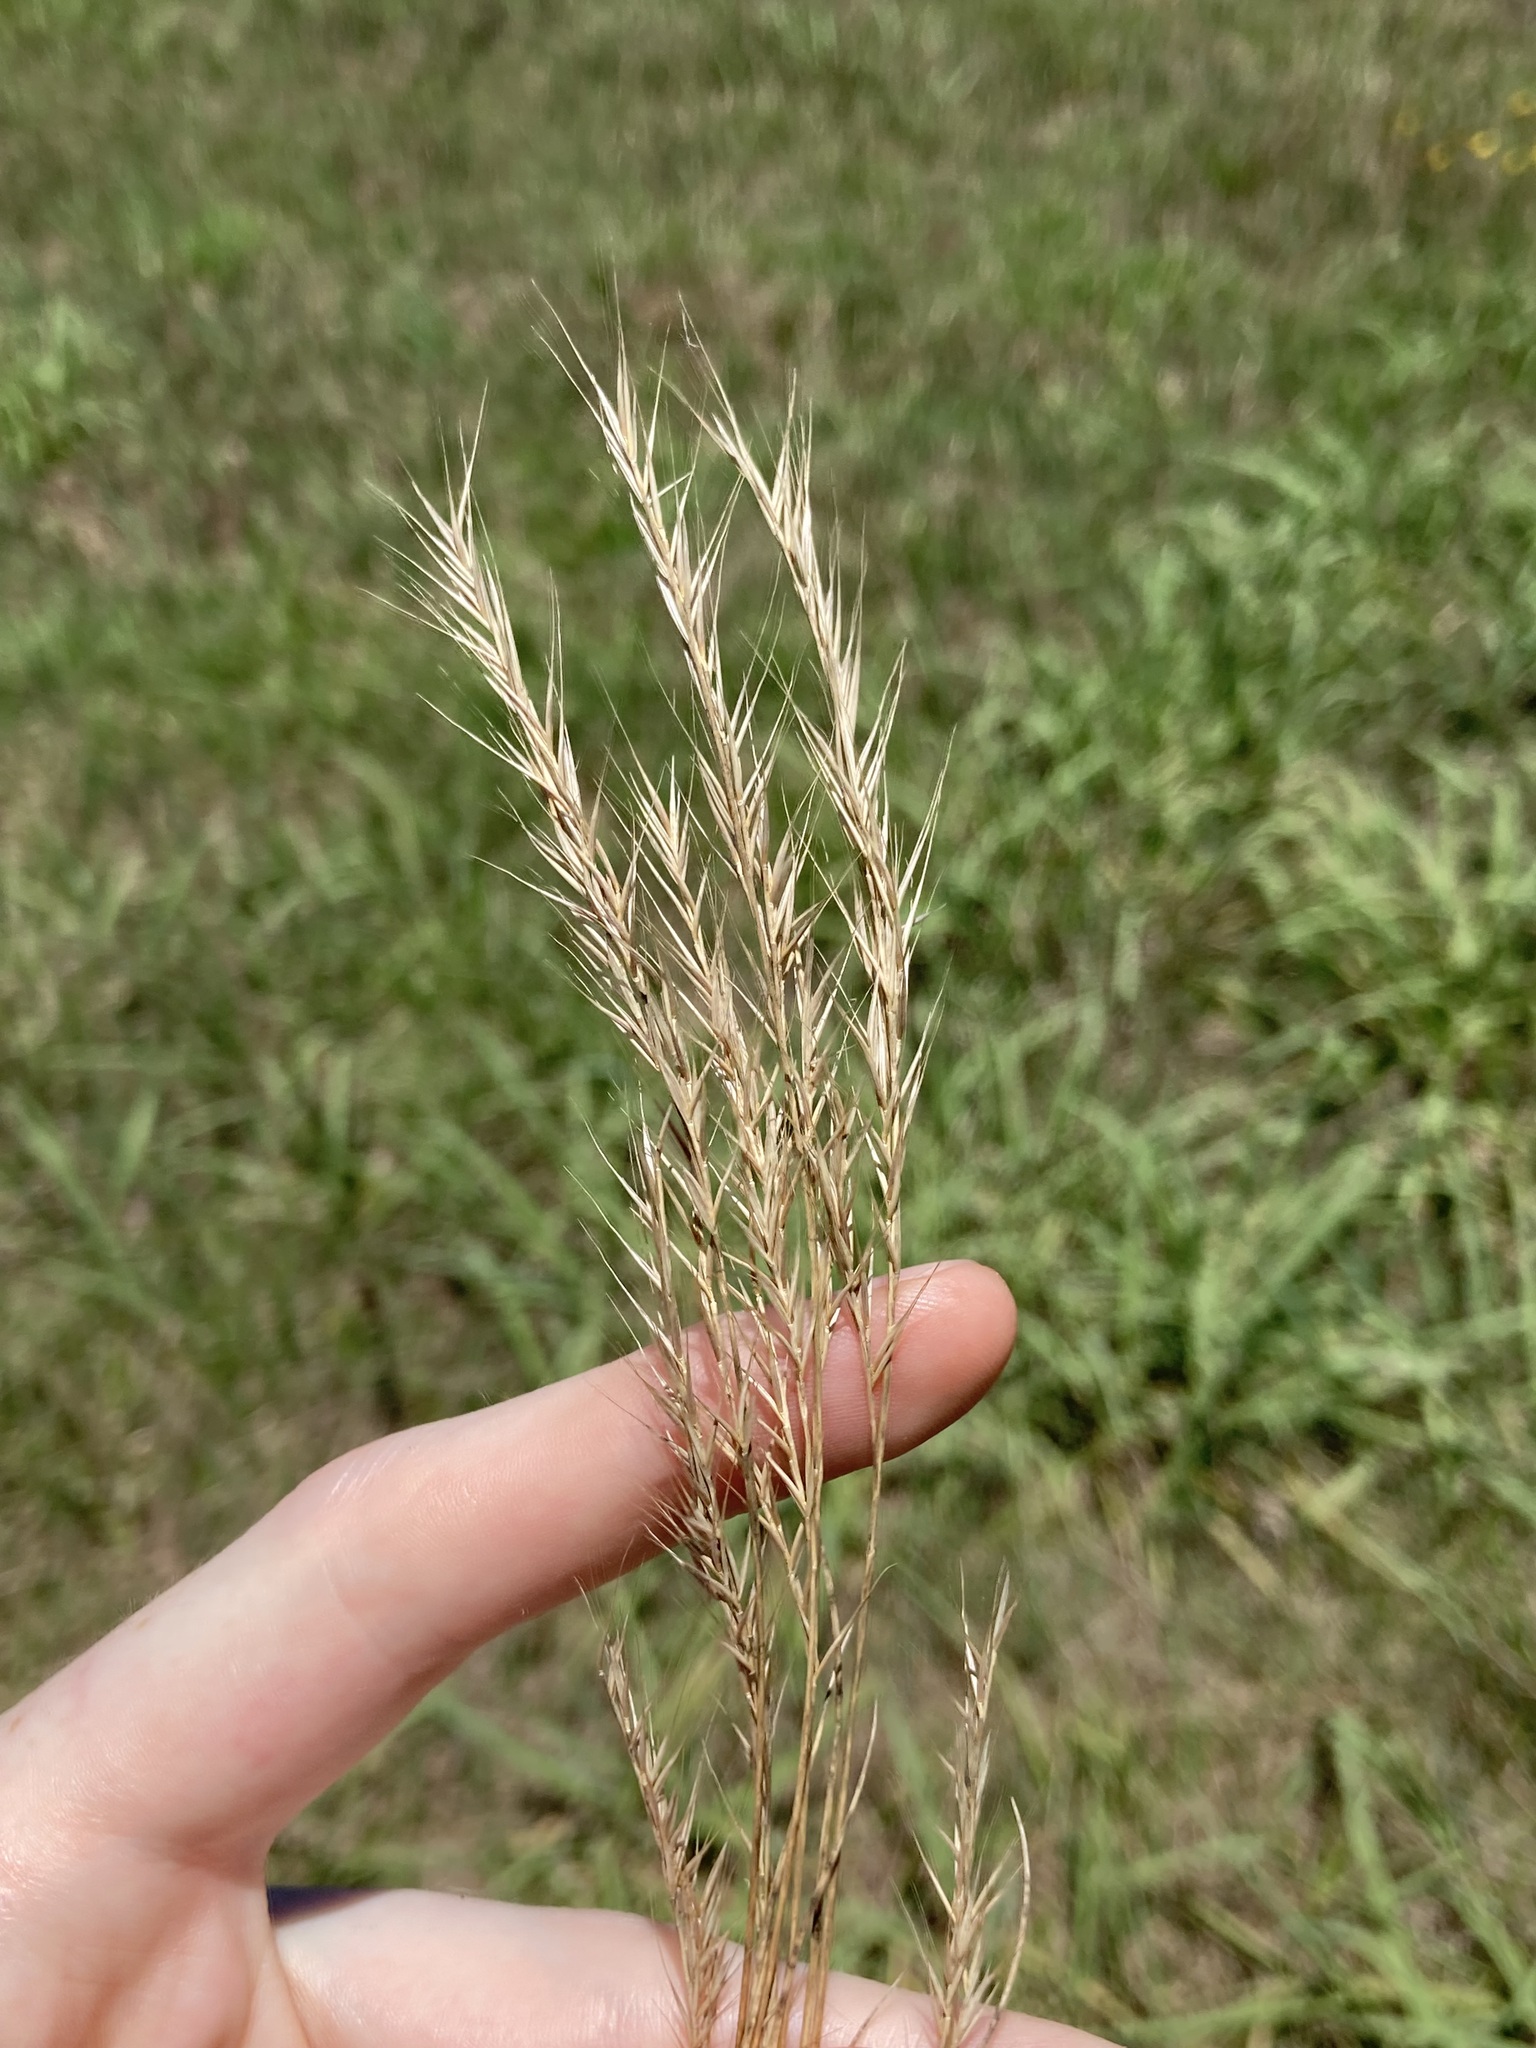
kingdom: Plantae
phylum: Tracheophyta
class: Liliopsida
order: Poales
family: Poaceae
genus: Festuca
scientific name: Festuca
